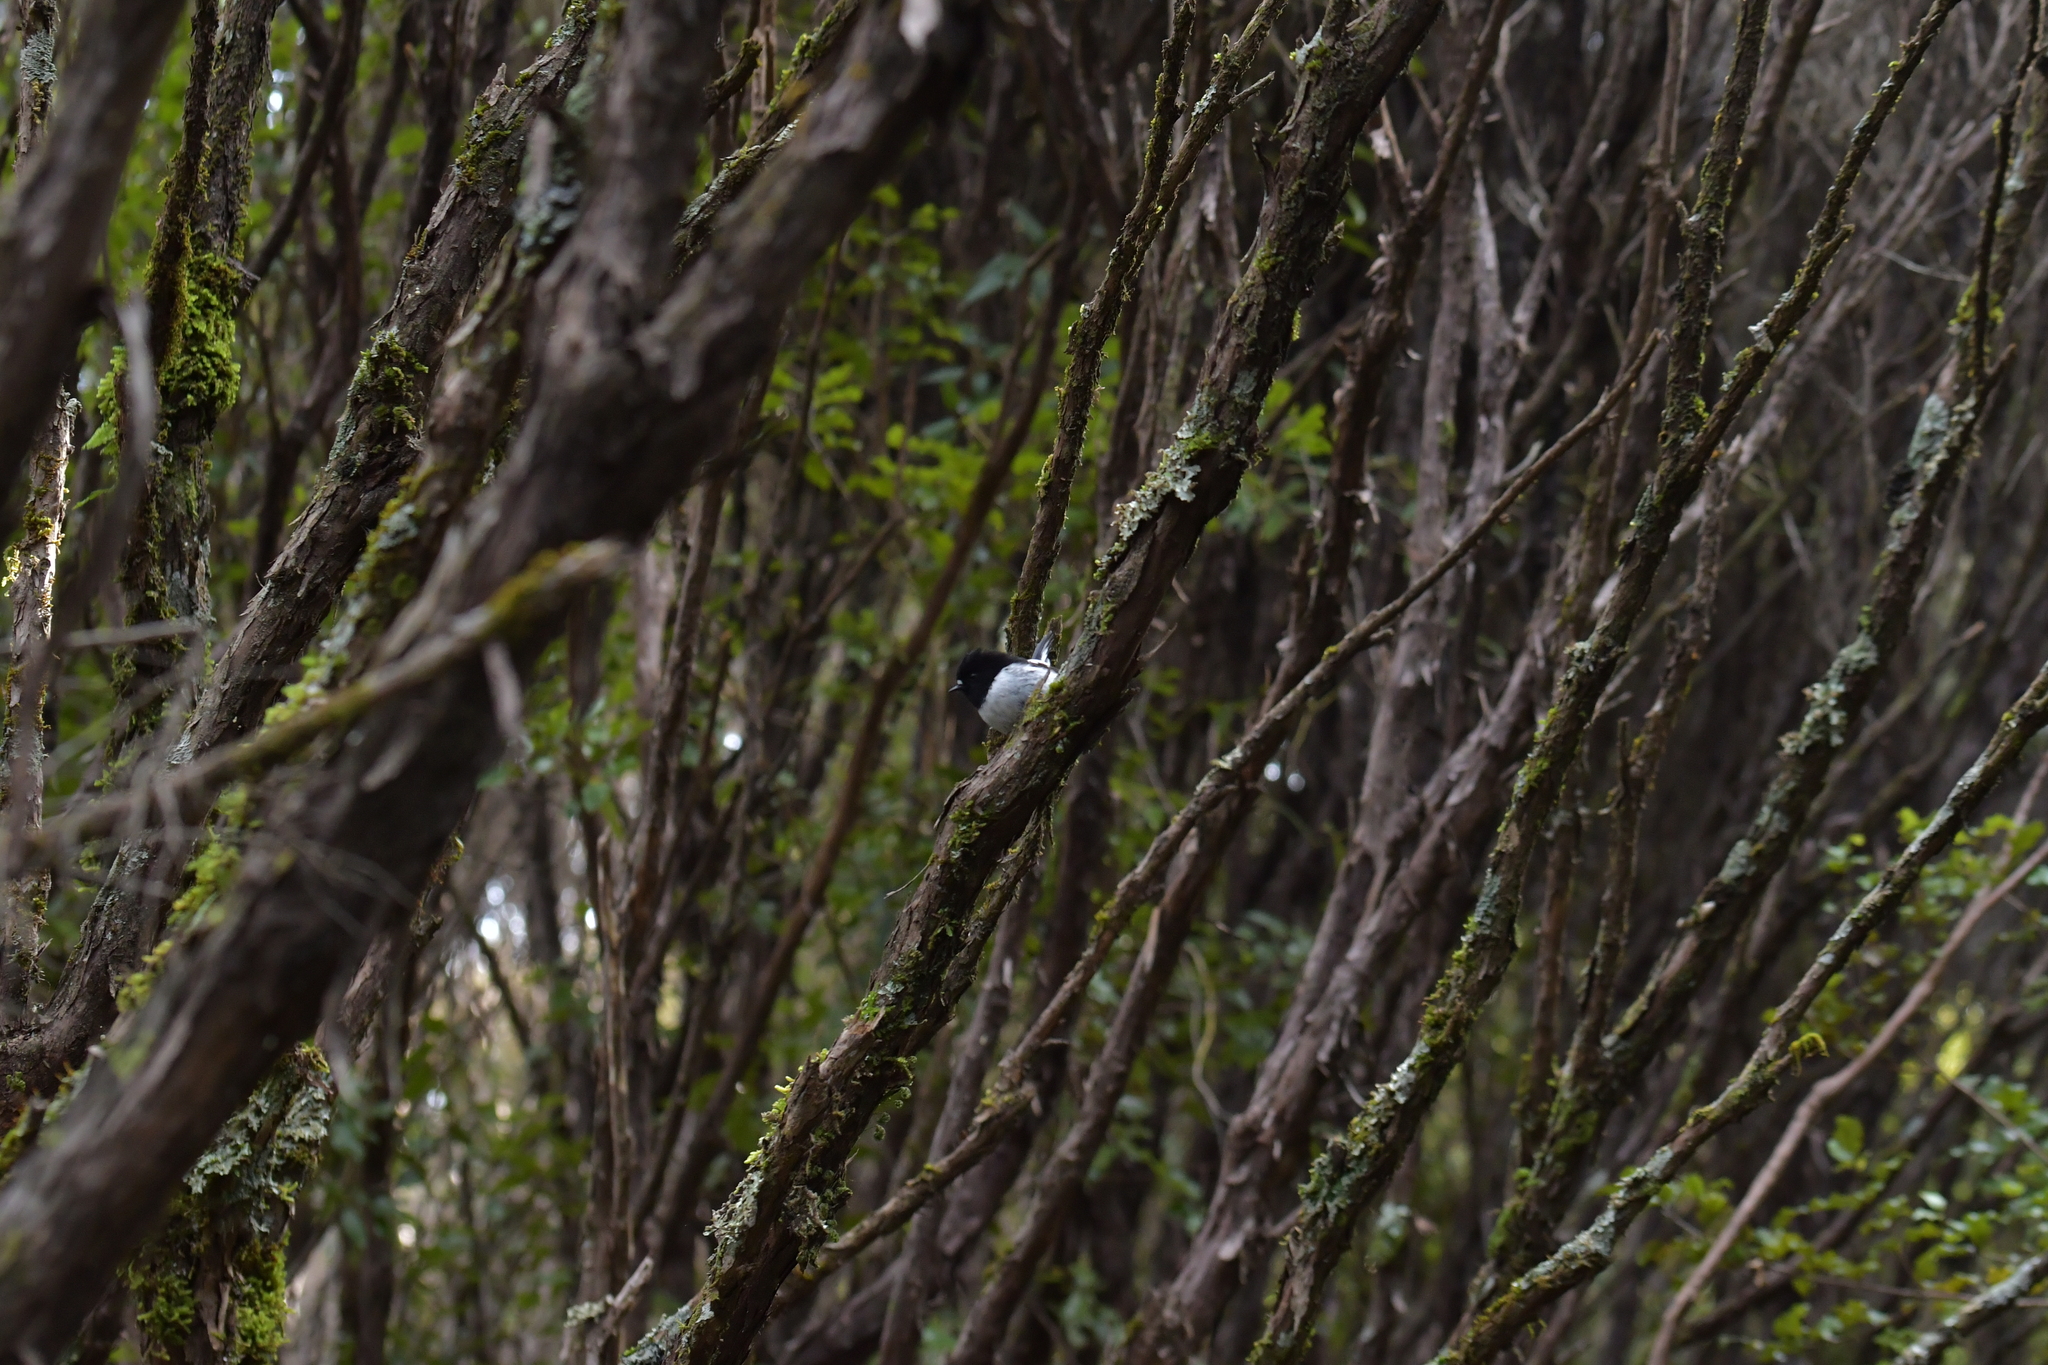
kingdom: Animalia
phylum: Chordata
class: Aves
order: Passeriformes
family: Petroicidae
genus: Petroica
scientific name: Petroica macrocephala
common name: Tomtit
